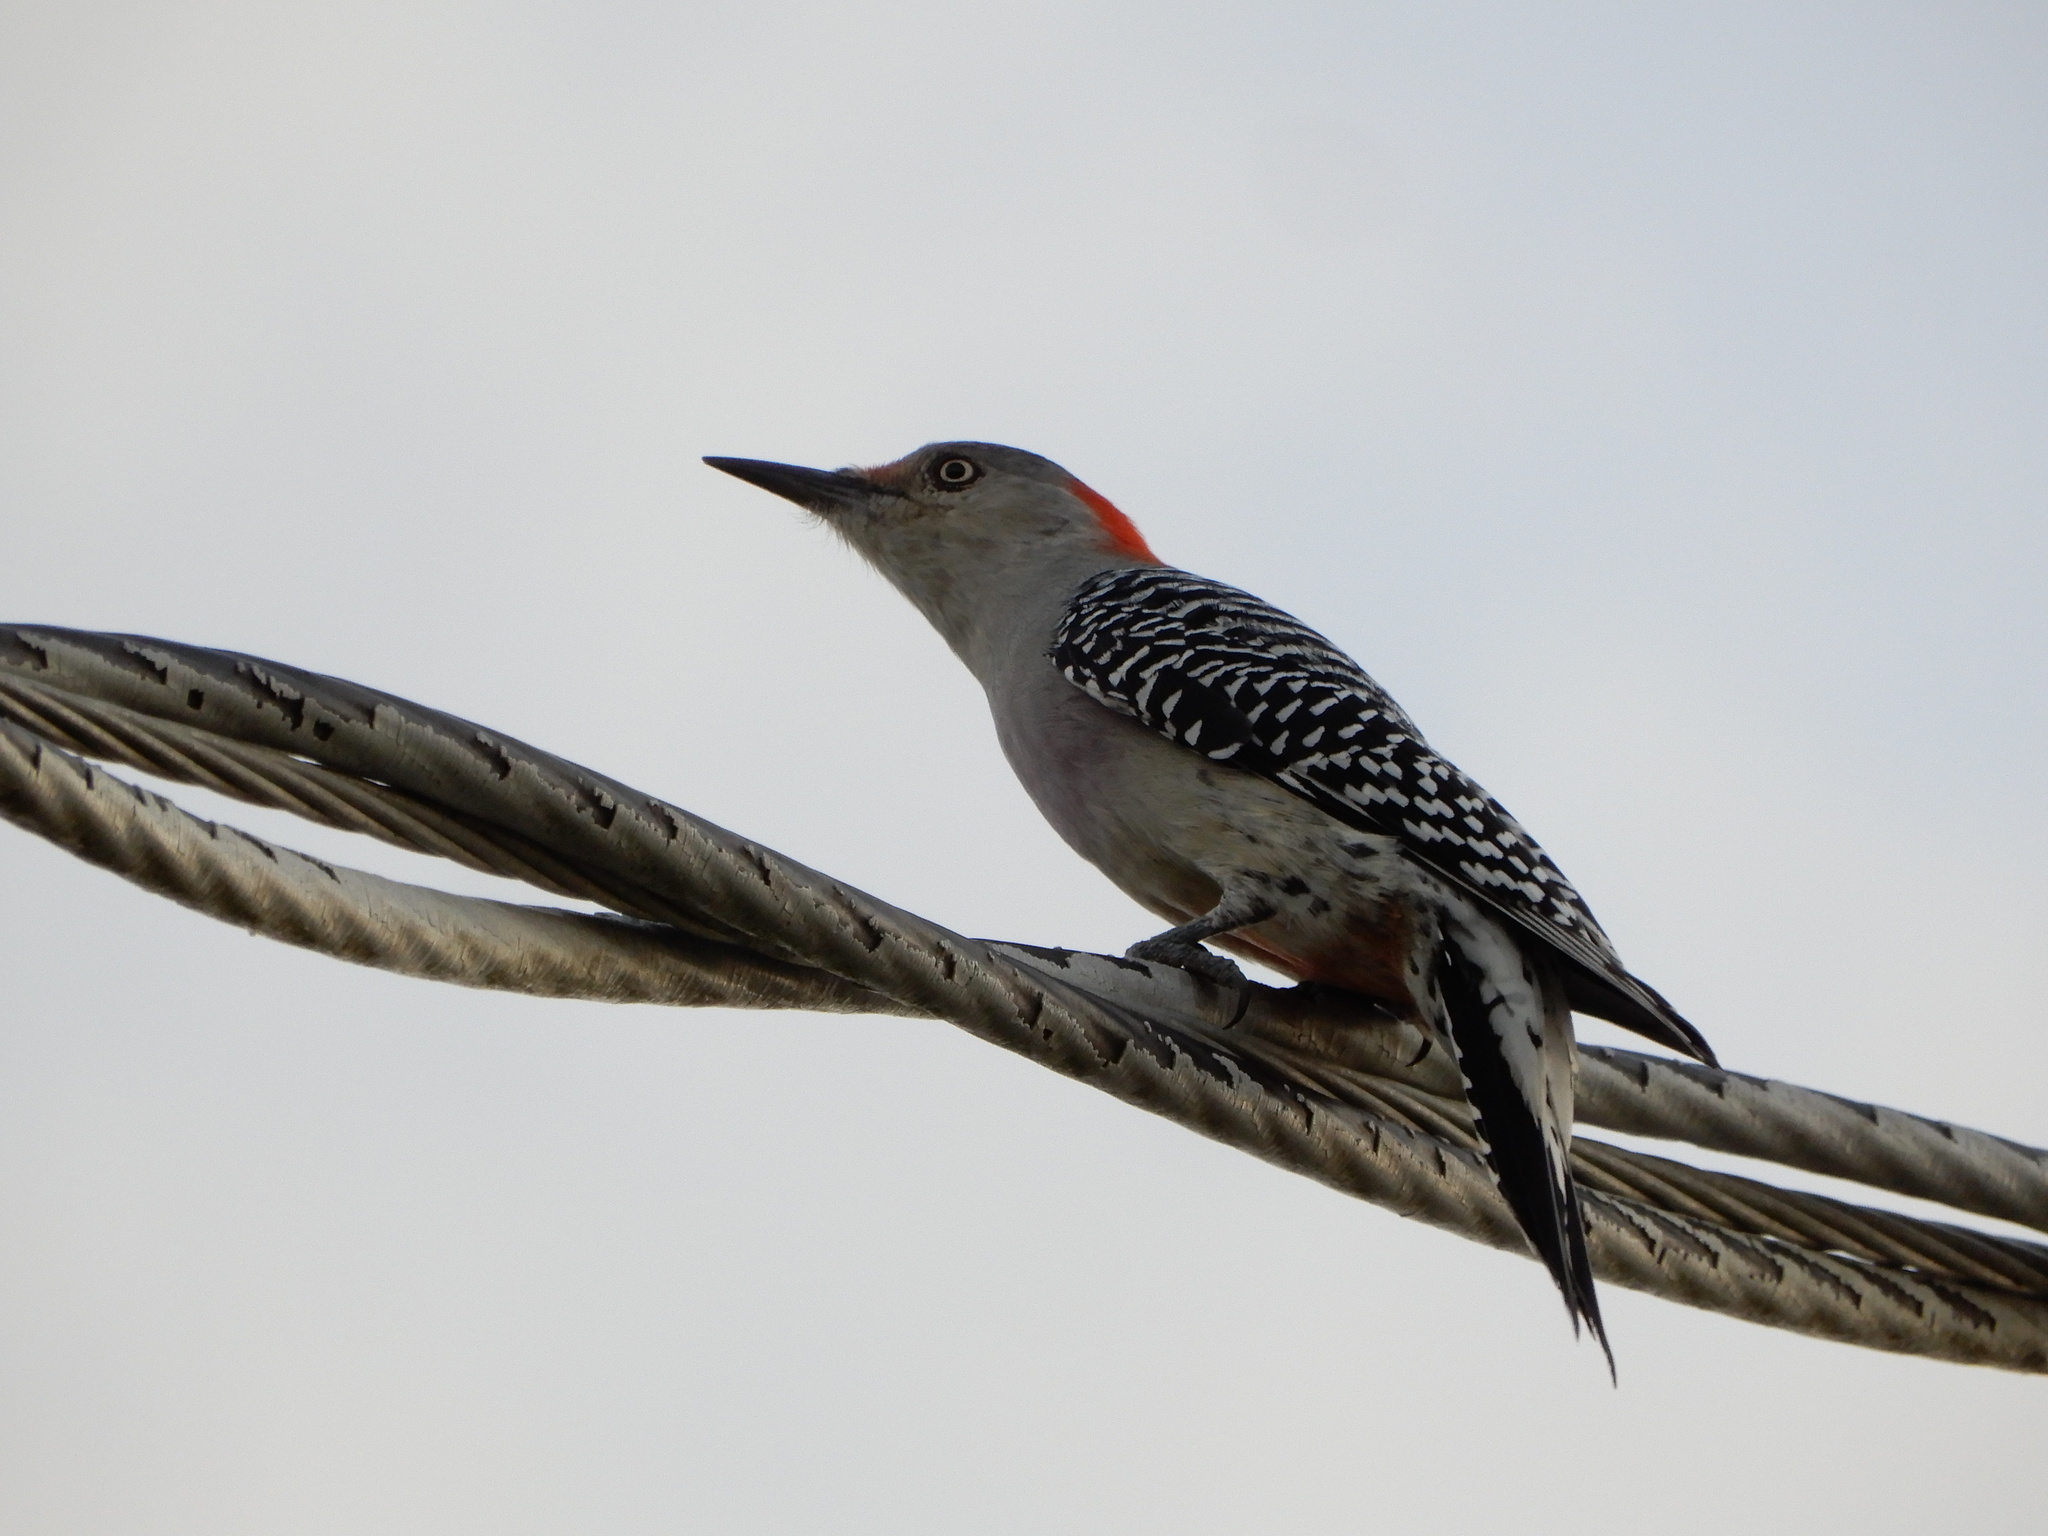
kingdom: Animalia
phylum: Chordata
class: Aves
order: Piciformes
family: Picidae
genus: Melanerpes
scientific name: Melanerpes carolinus
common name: Red-bellied woodpecker
